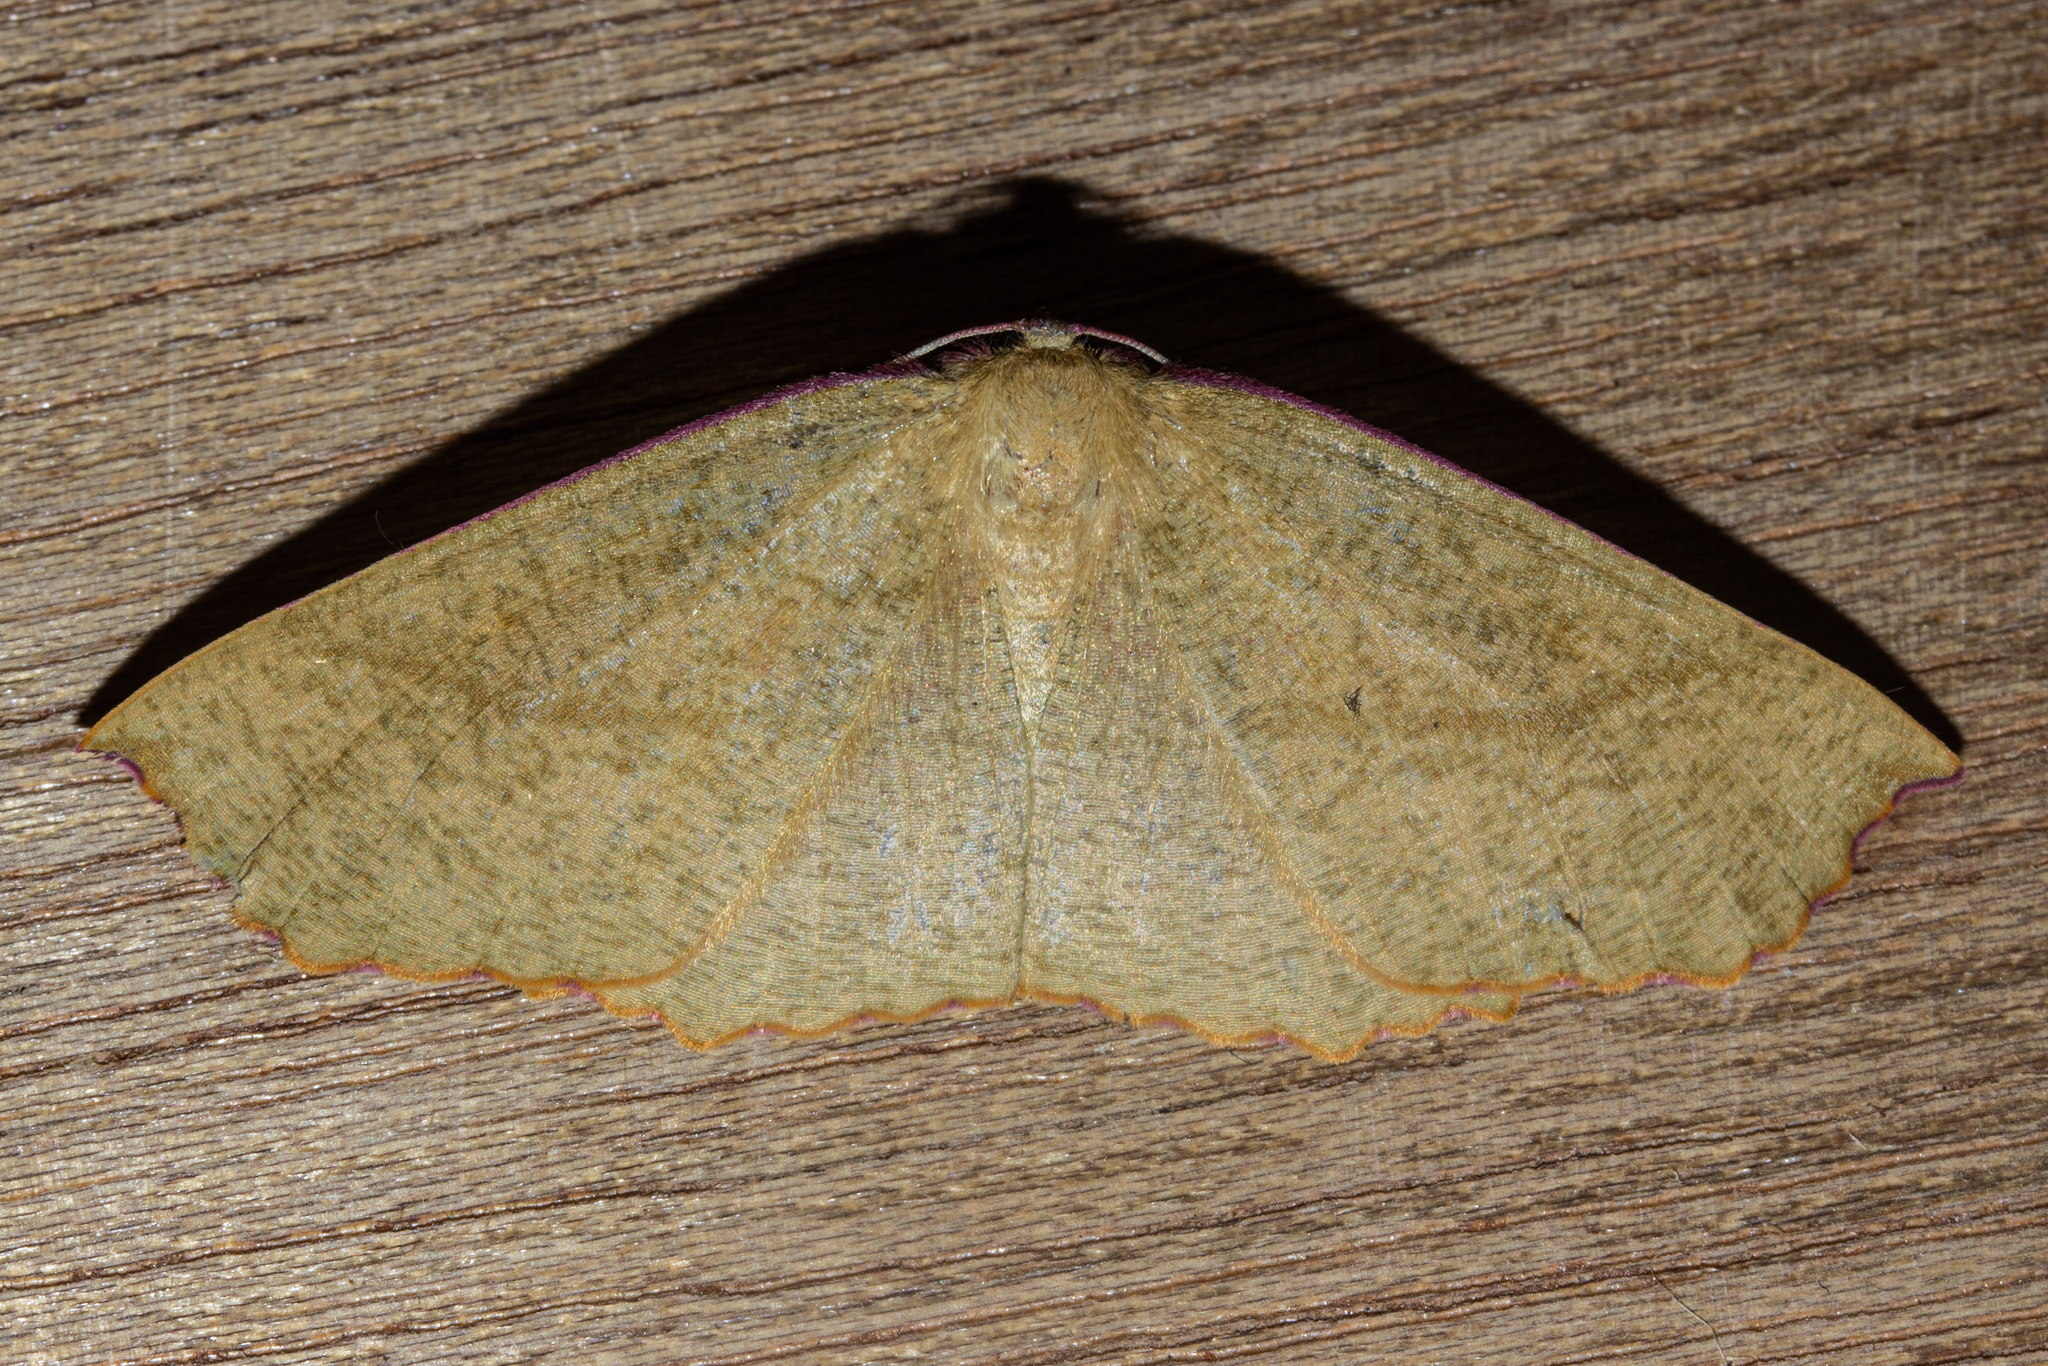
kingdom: Animalia
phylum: Arthropoda
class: Insecta
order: Lepidoptera
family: Geometridae
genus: Xyridacma
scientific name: Xyridacma alectoraria
